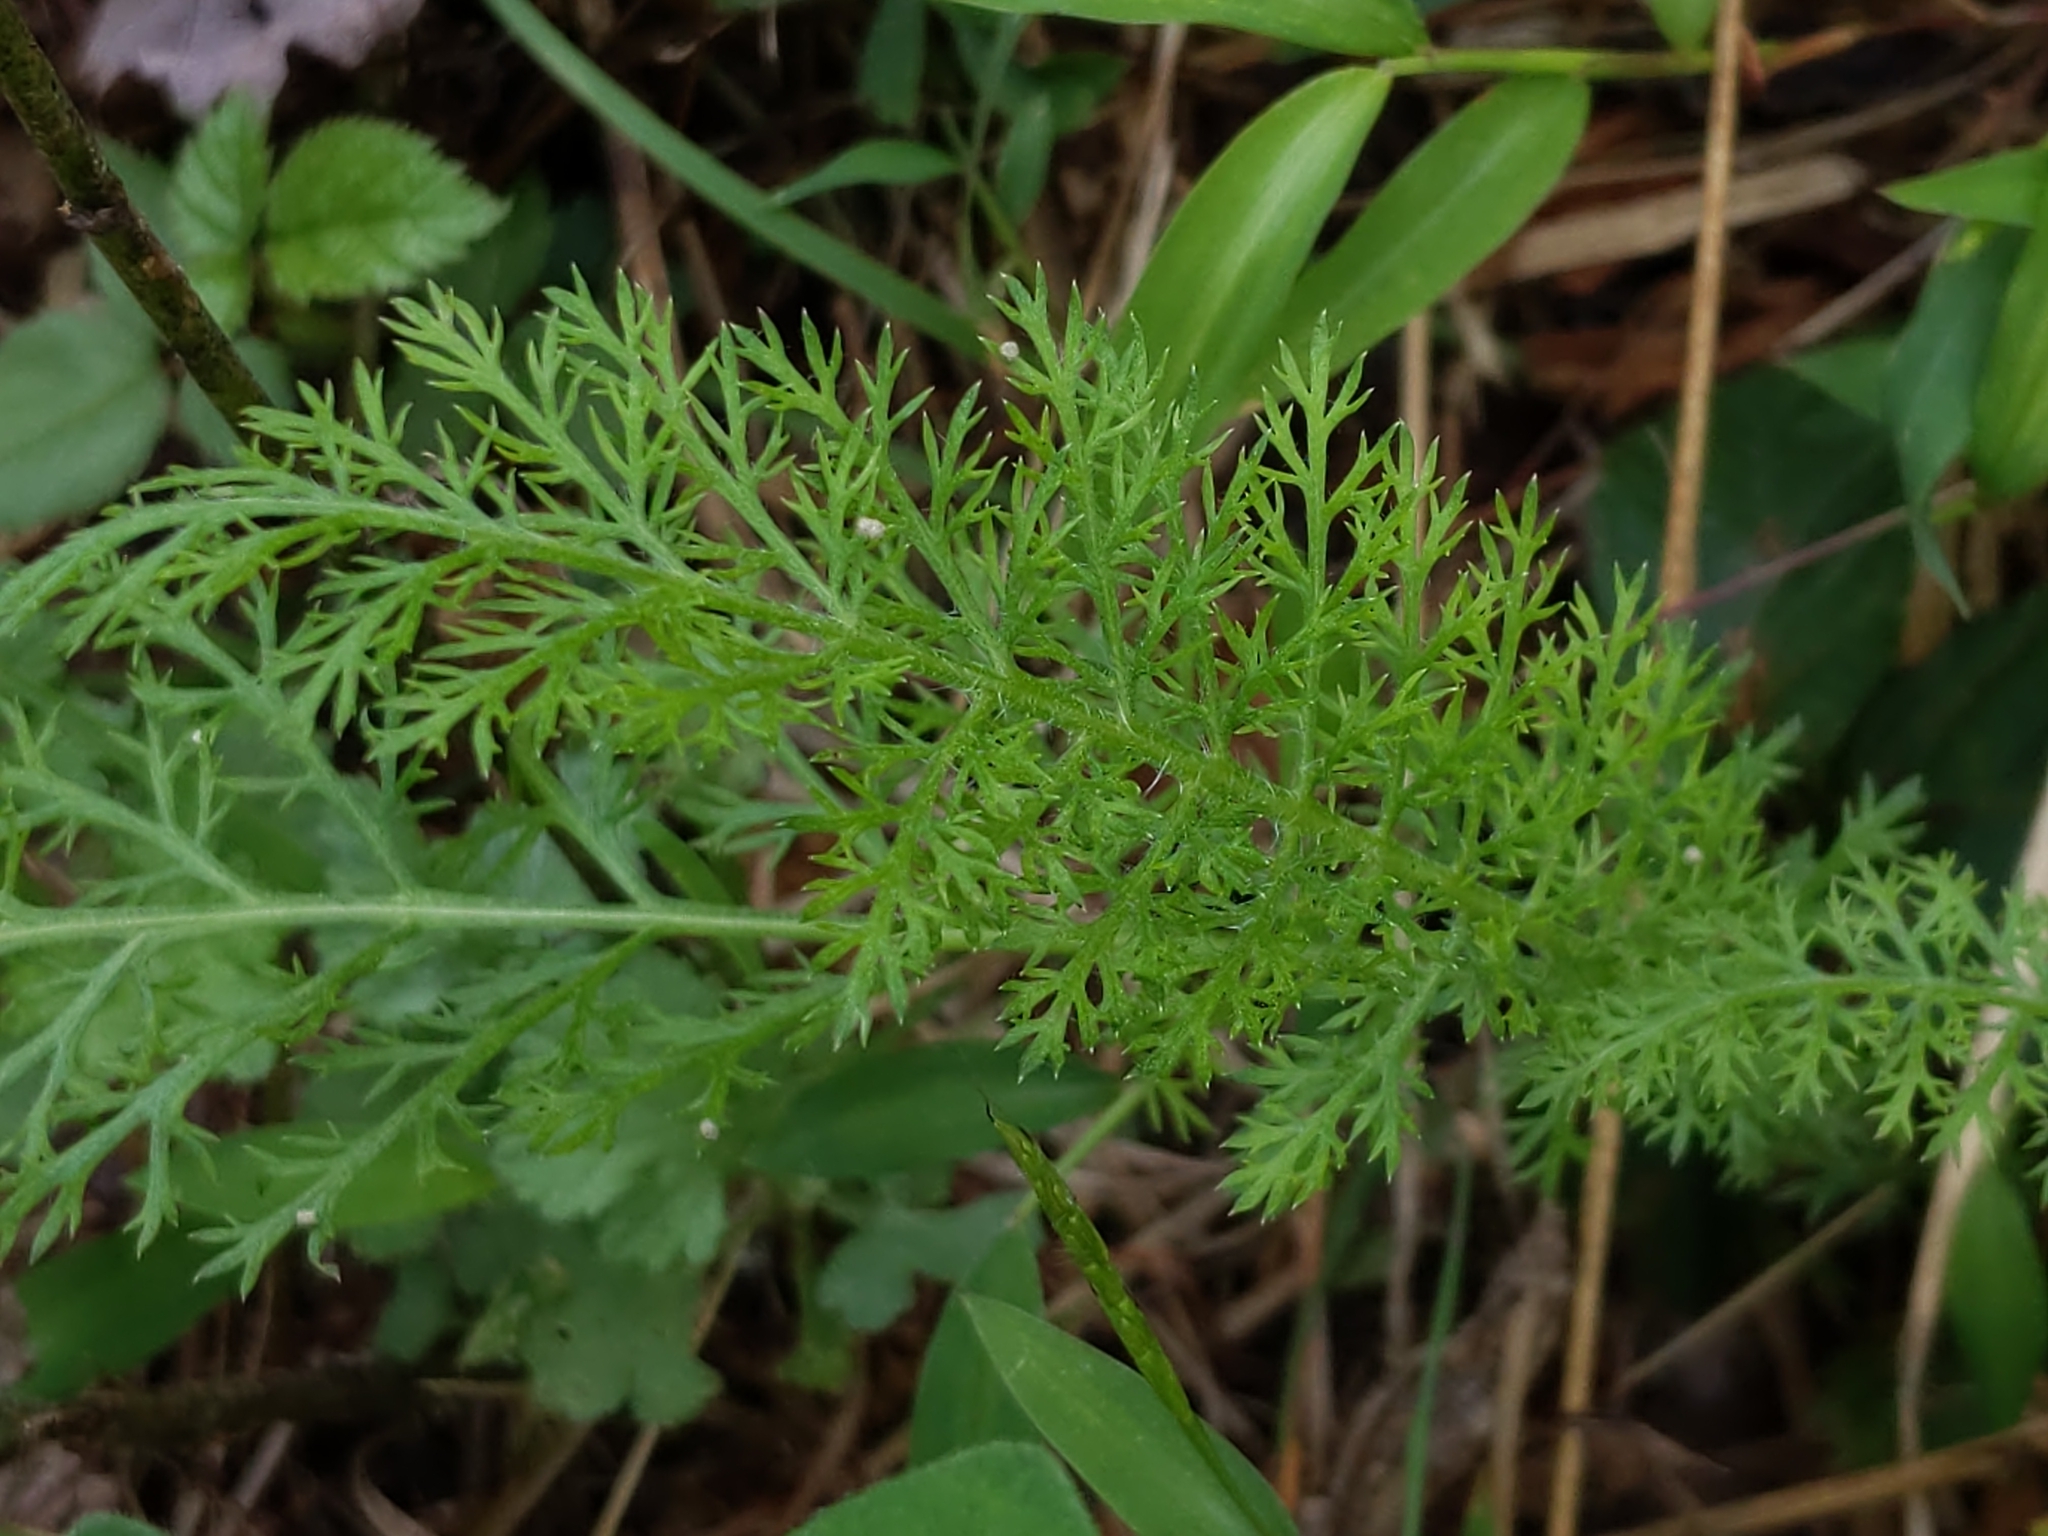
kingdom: Plantae
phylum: Tracheophyta
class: Magnoliopsida
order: Asterales
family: Asteraceae
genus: Achillea
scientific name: Achillea millefolium
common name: Yarrow
